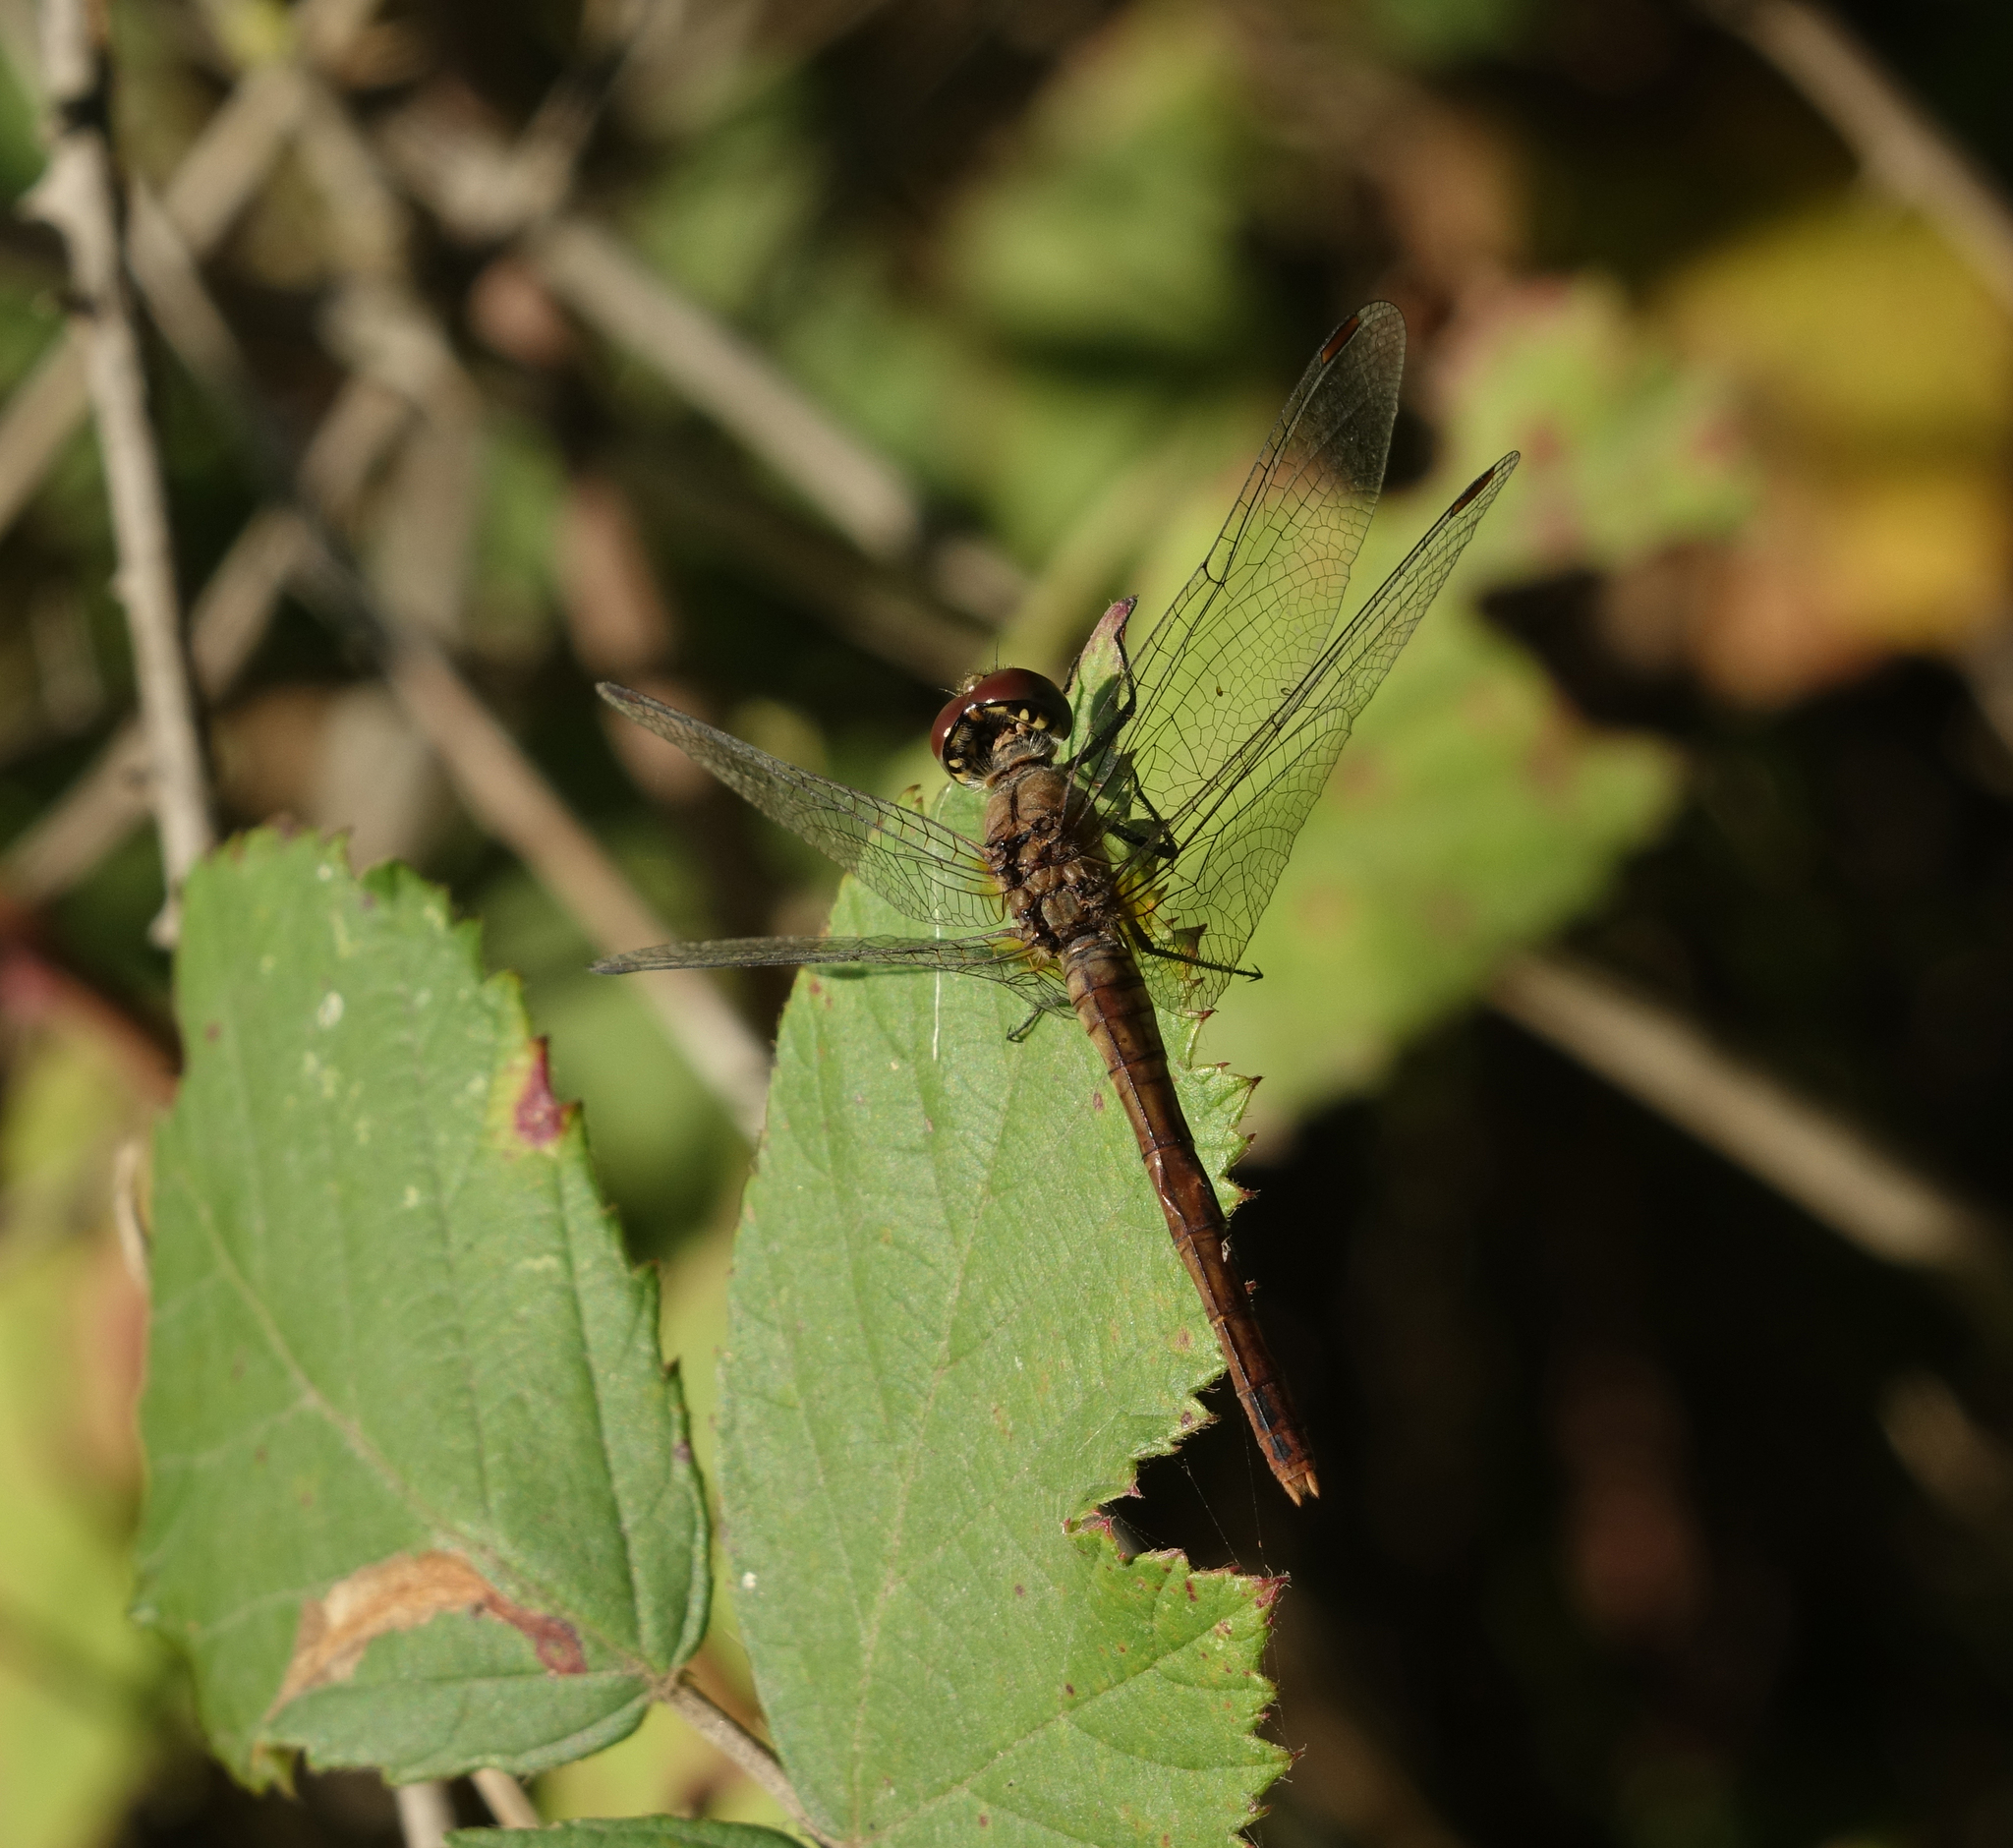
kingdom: Animalia
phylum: Arthropoda
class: Insecta
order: Odonata
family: Libellulidae
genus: Sympetrum
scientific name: Sympetrum sanguineum
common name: Ruddy darter
